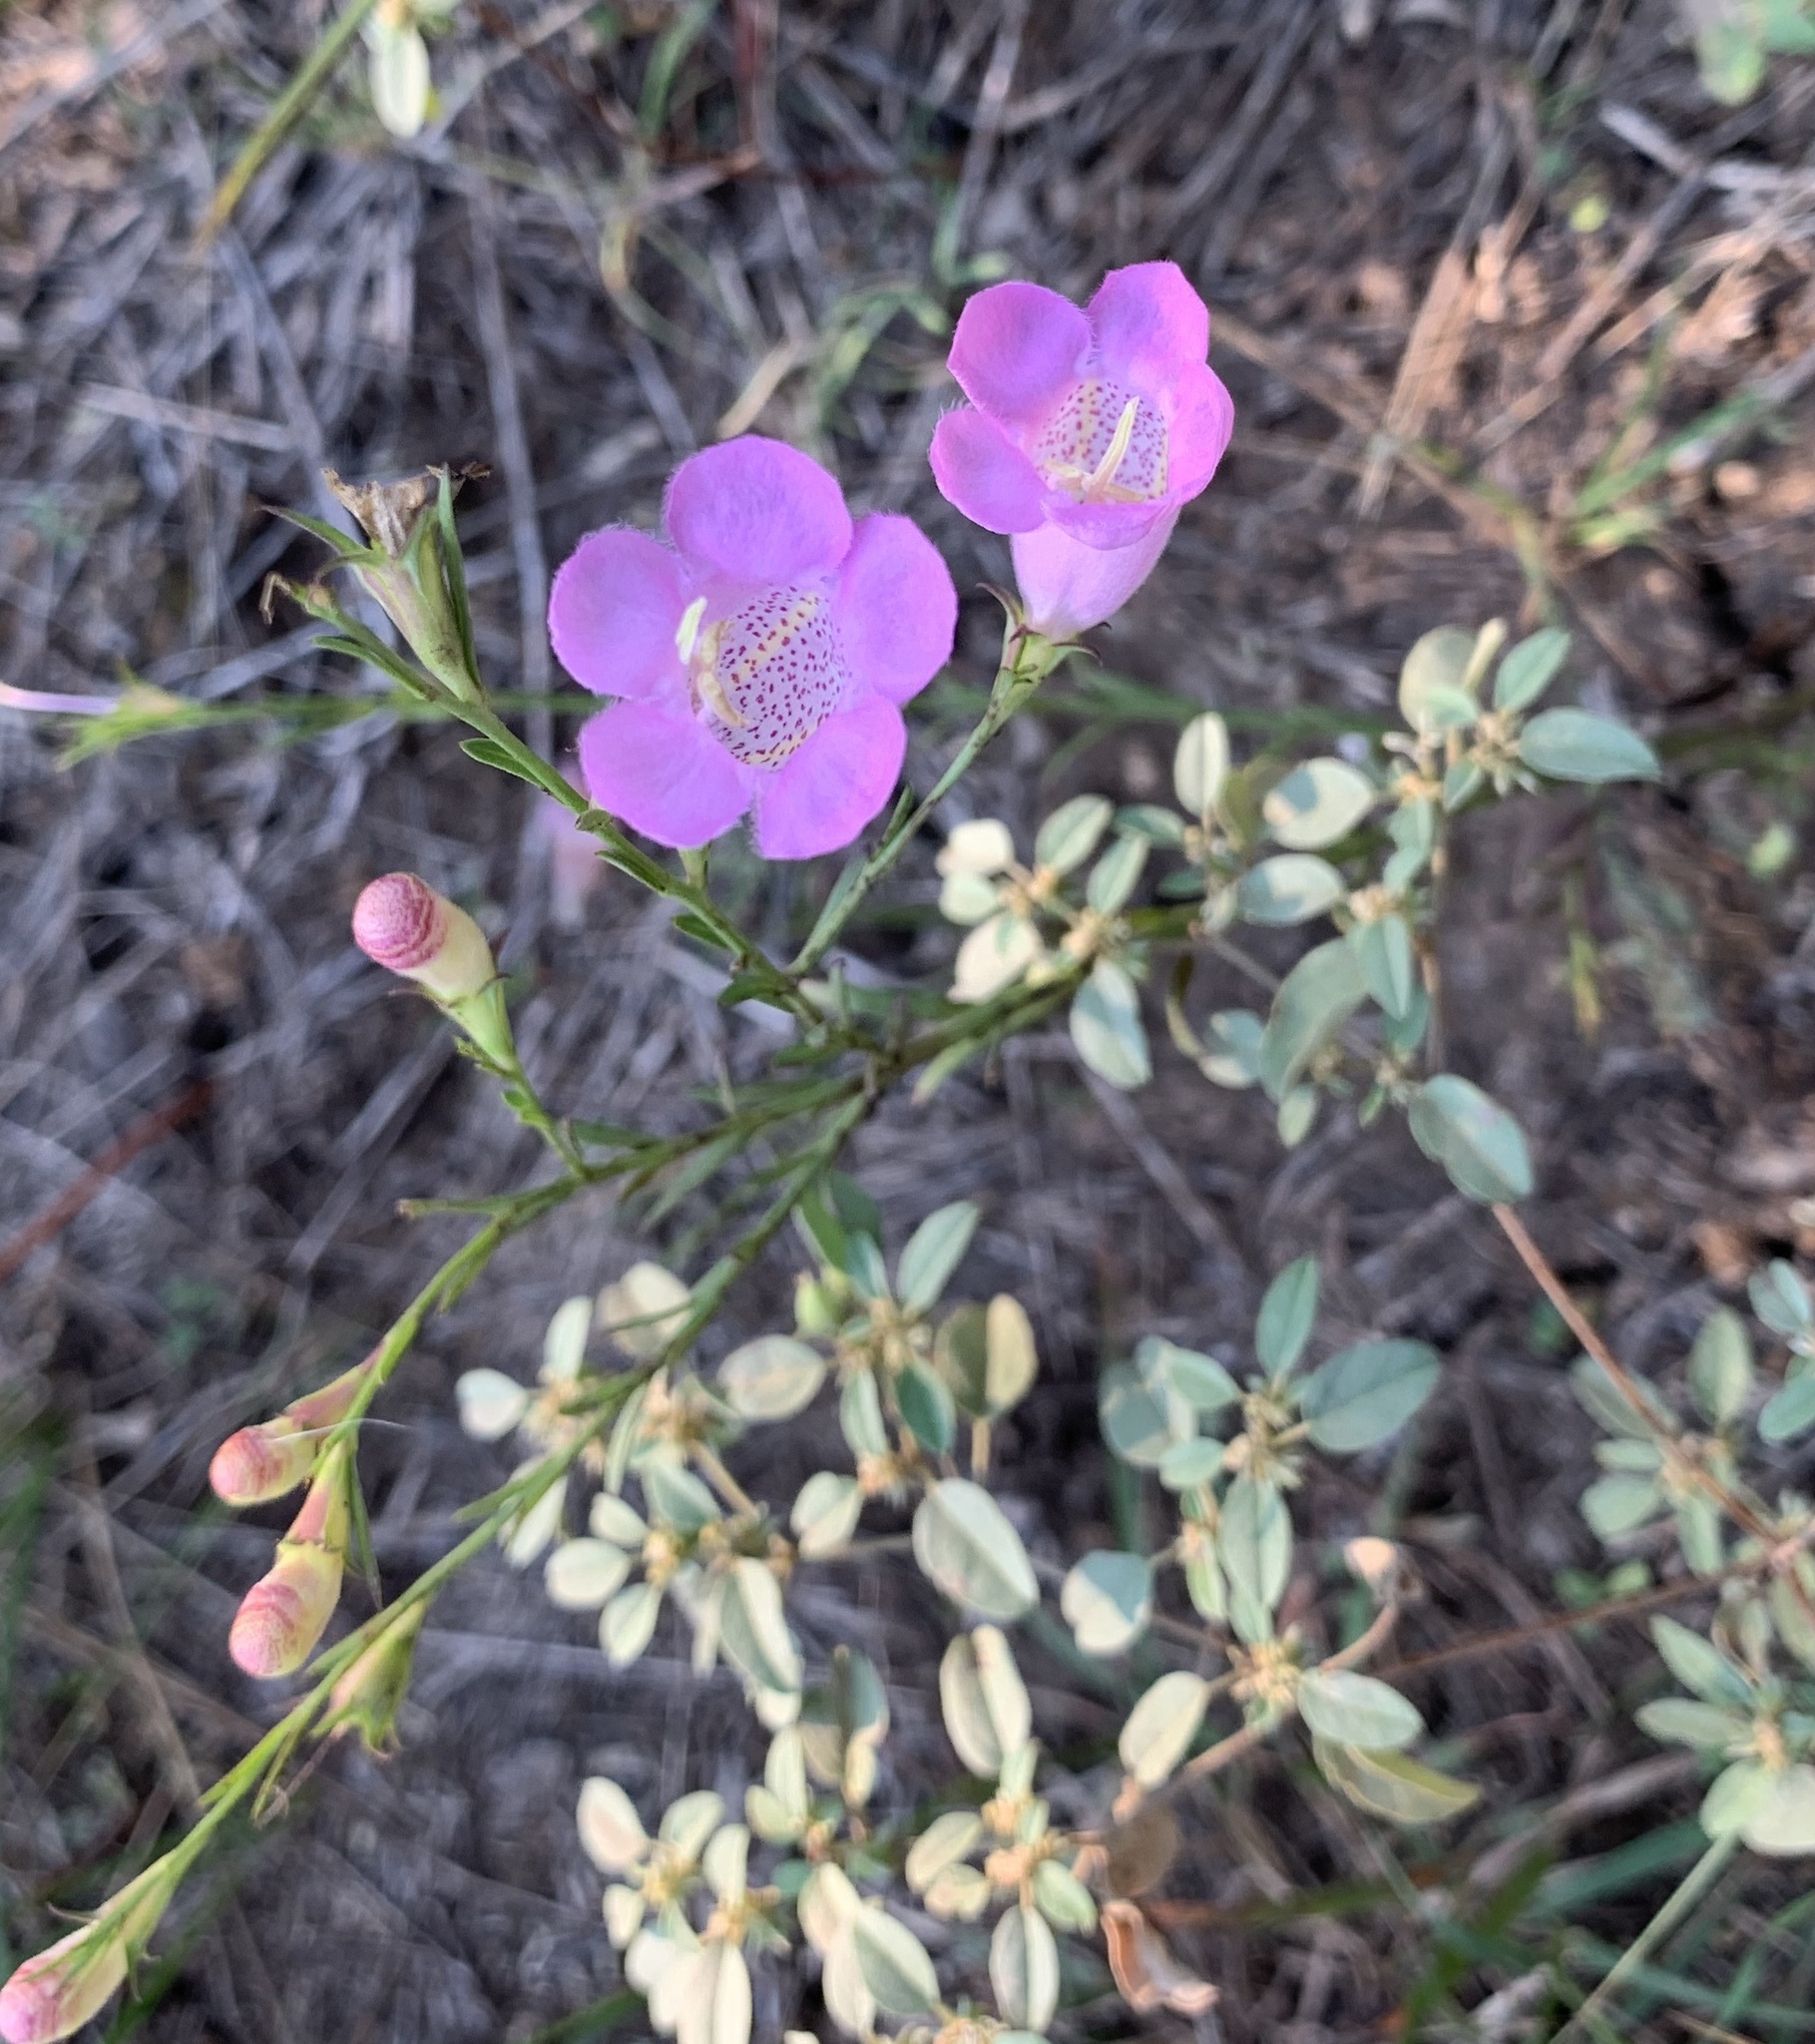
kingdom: Plantae
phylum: Tracheophyta
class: Magnoliopsida
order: Lamiales
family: Orobanchaceae
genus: Agalinis
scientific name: Agalinis heterophylla
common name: Prairie agalinis
